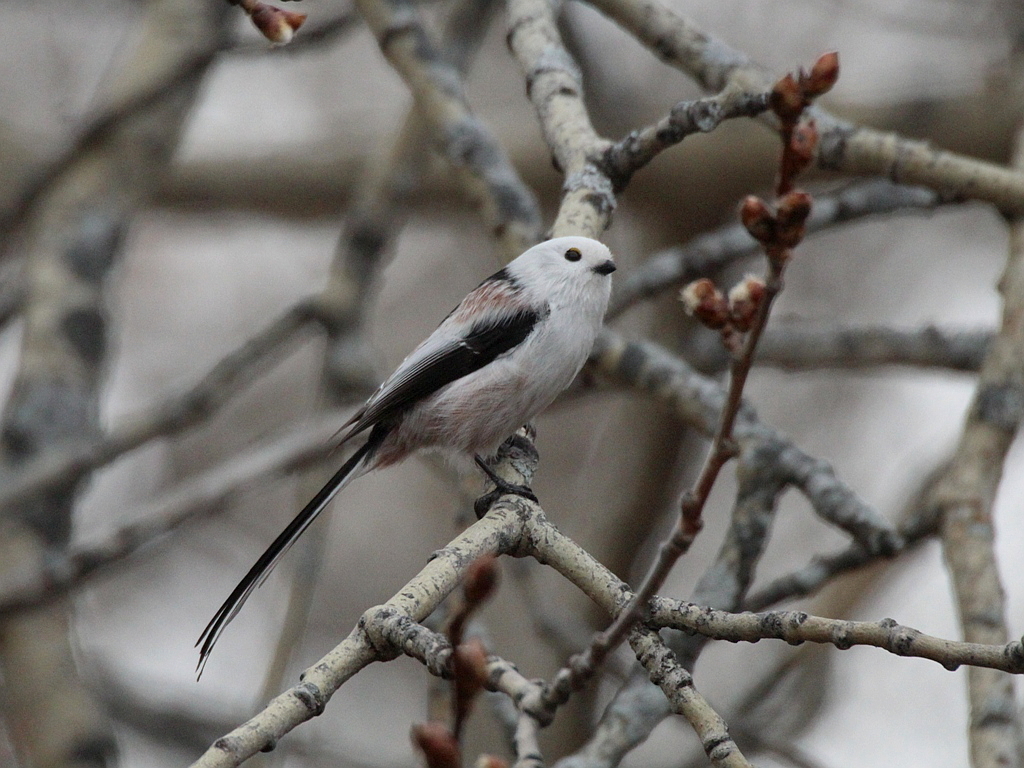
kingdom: Animalia
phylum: Chordata
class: Aves
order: Passeriformes
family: Aegithalidae
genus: Aegithalos
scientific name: Aegithalos caudatus
